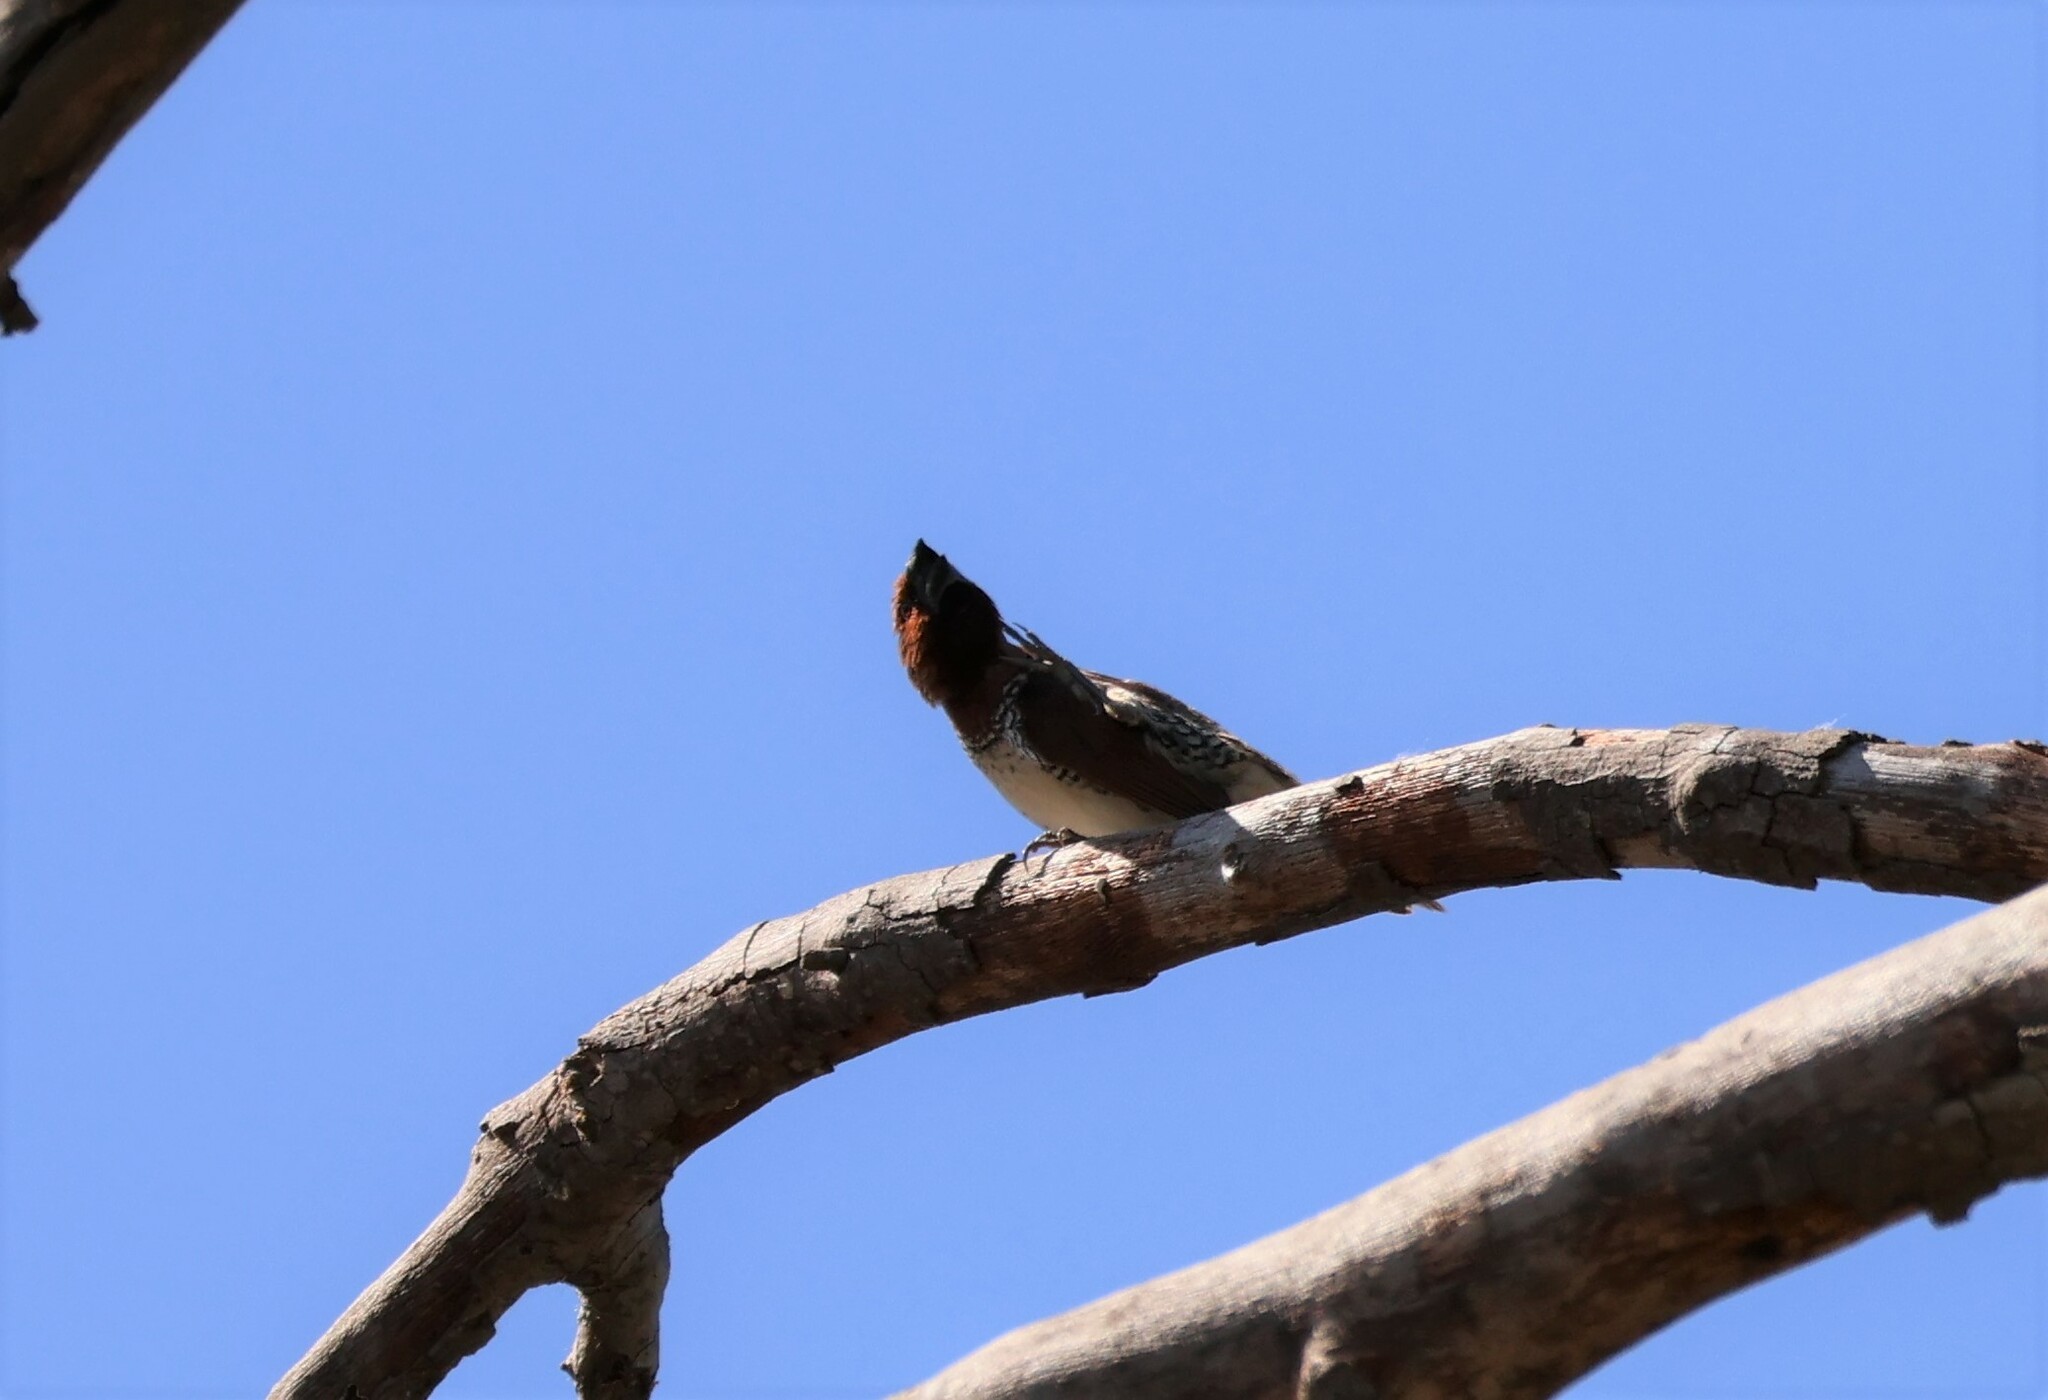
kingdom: Animalia
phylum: Chordata
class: Aves
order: Passeriformes
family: Estrildidae
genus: Lonchura
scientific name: Lonchura punctulata
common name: Scaly-breasted munia
